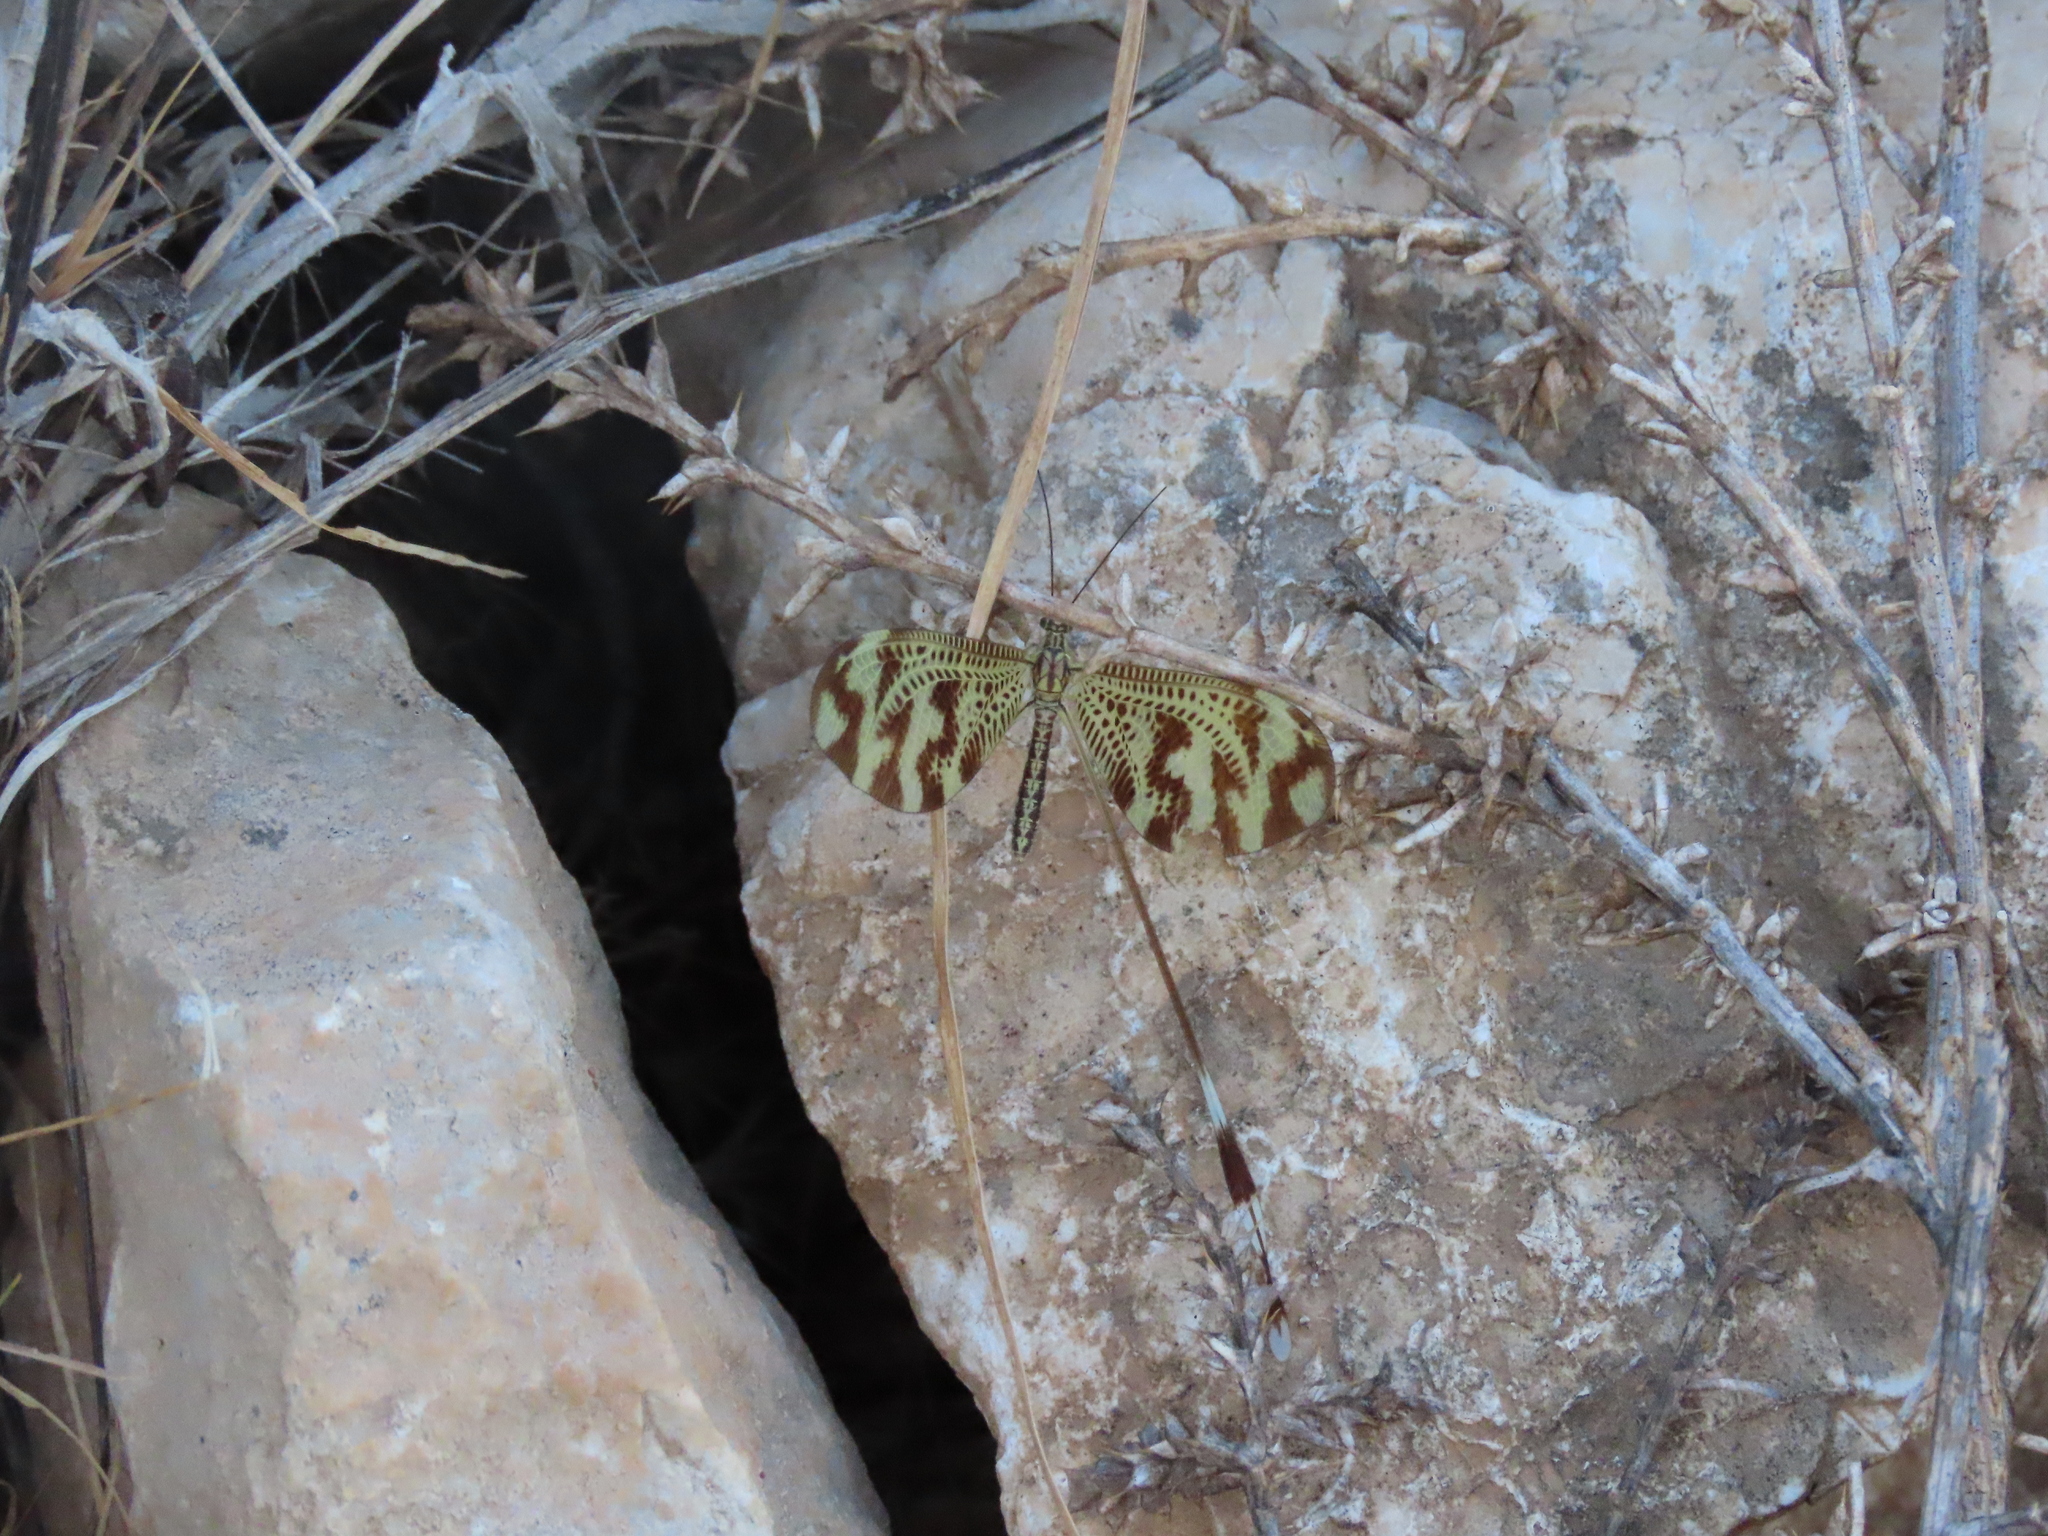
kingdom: Animalia
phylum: Arthropoda
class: Insecta
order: Neuroptera
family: Nemopteridae
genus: Nemoptera
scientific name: Nemoptera bipennis
